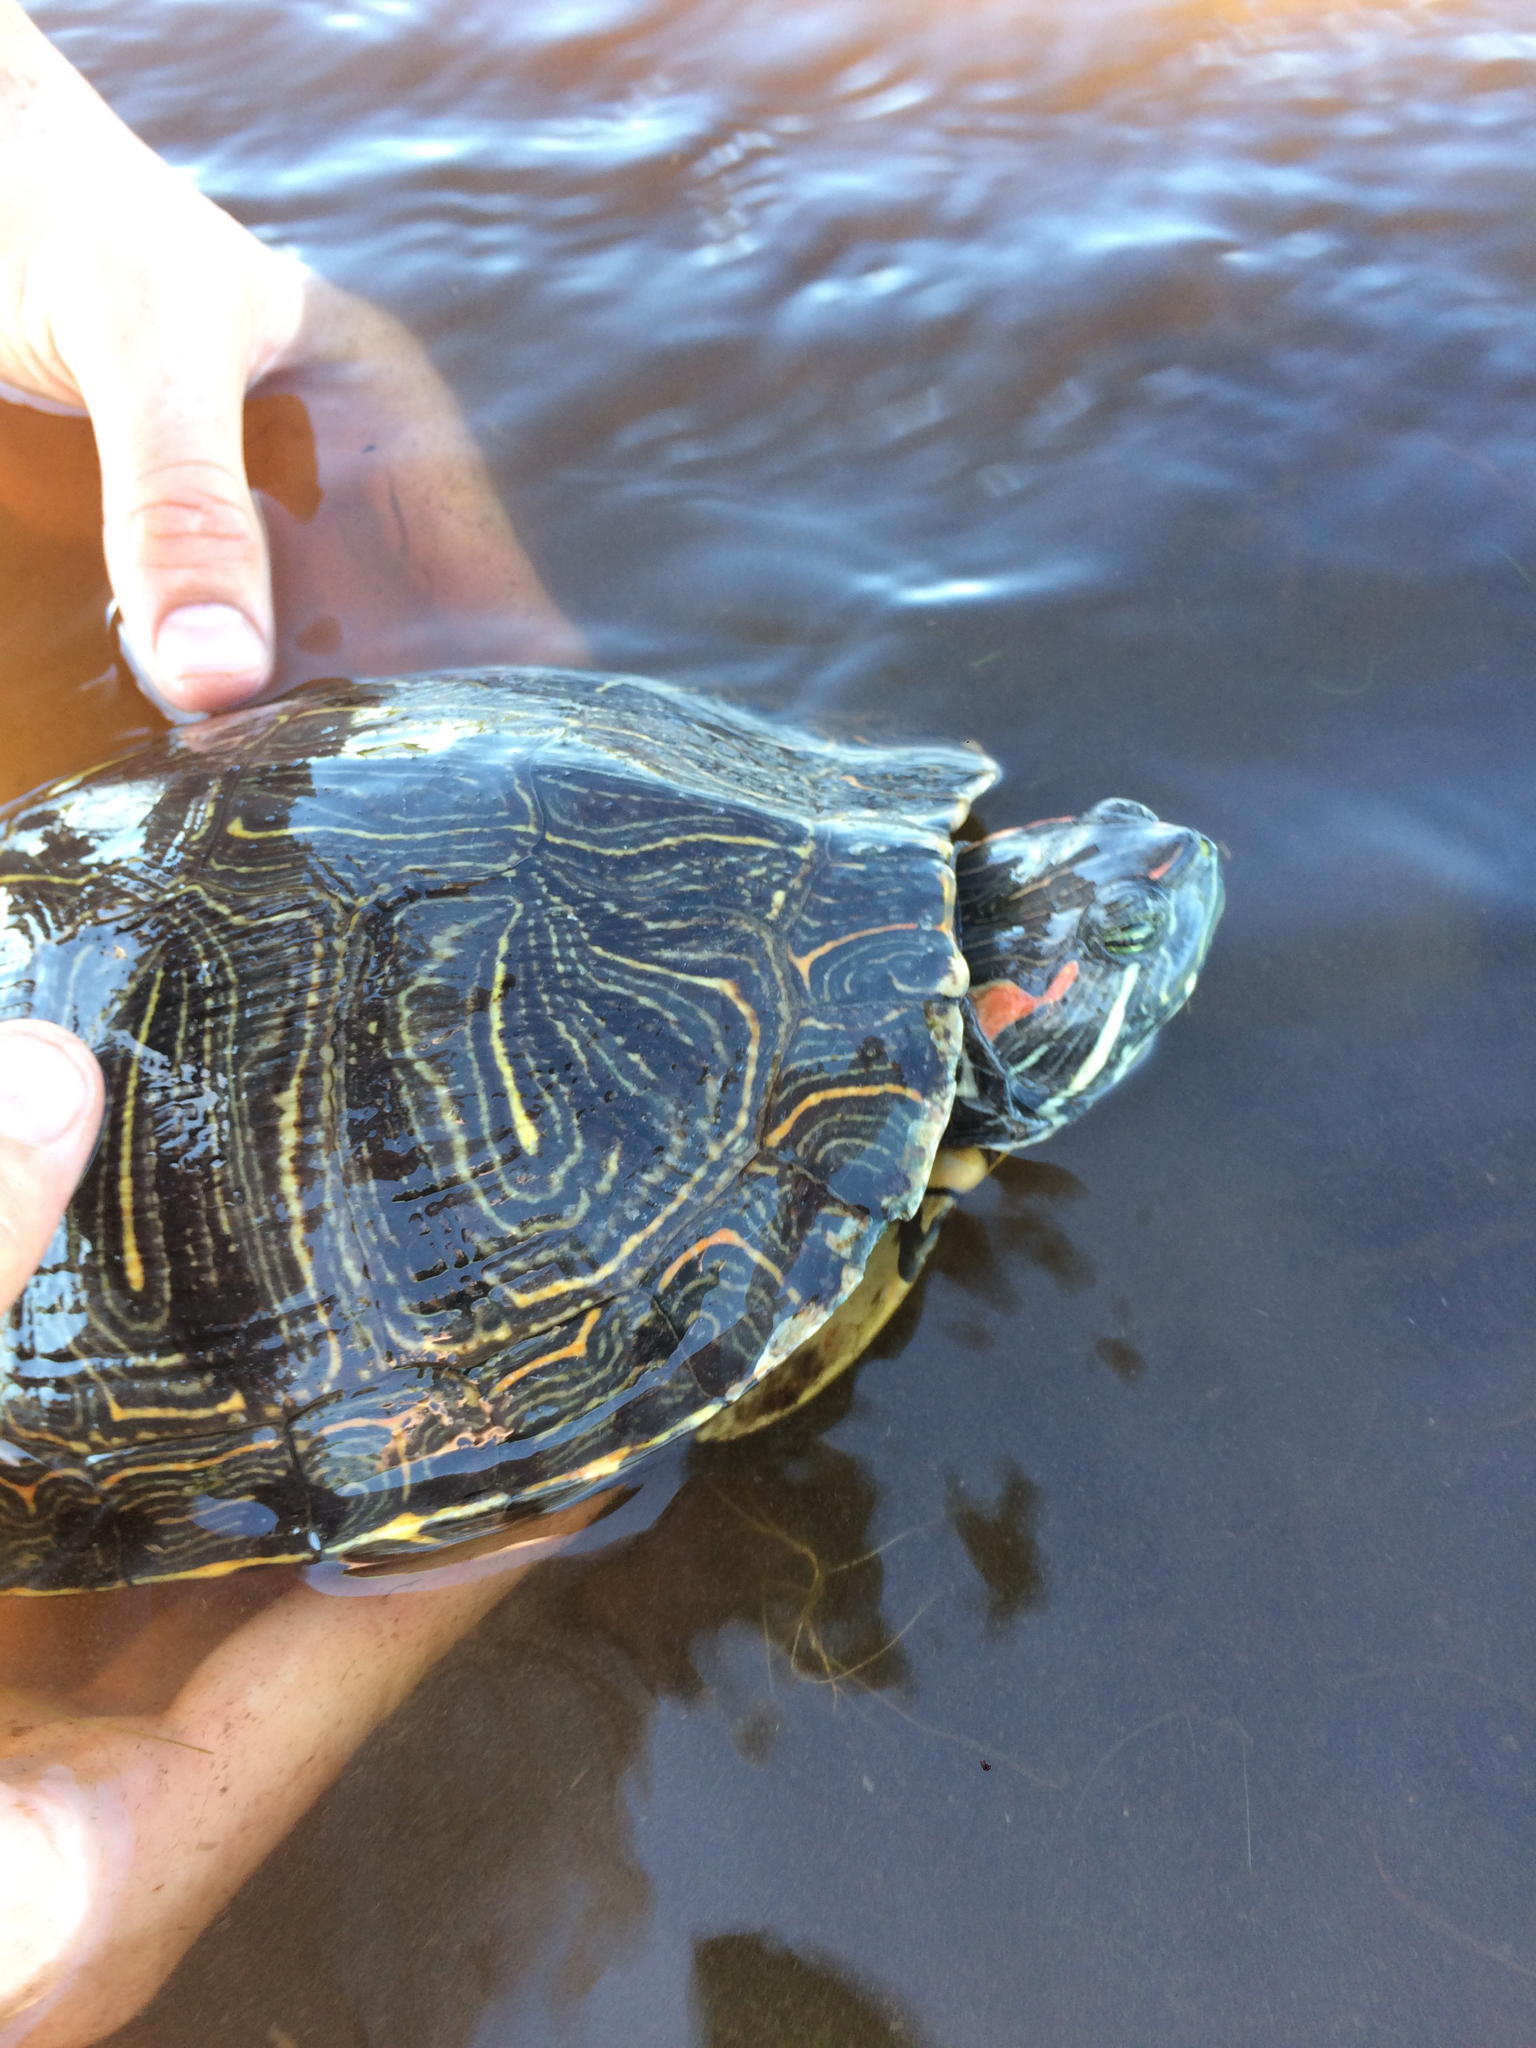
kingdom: Animalia
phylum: Chordata
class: Testudines
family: Emydidae
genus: Trachemys
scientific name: Trachemys scripta
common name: Slider
